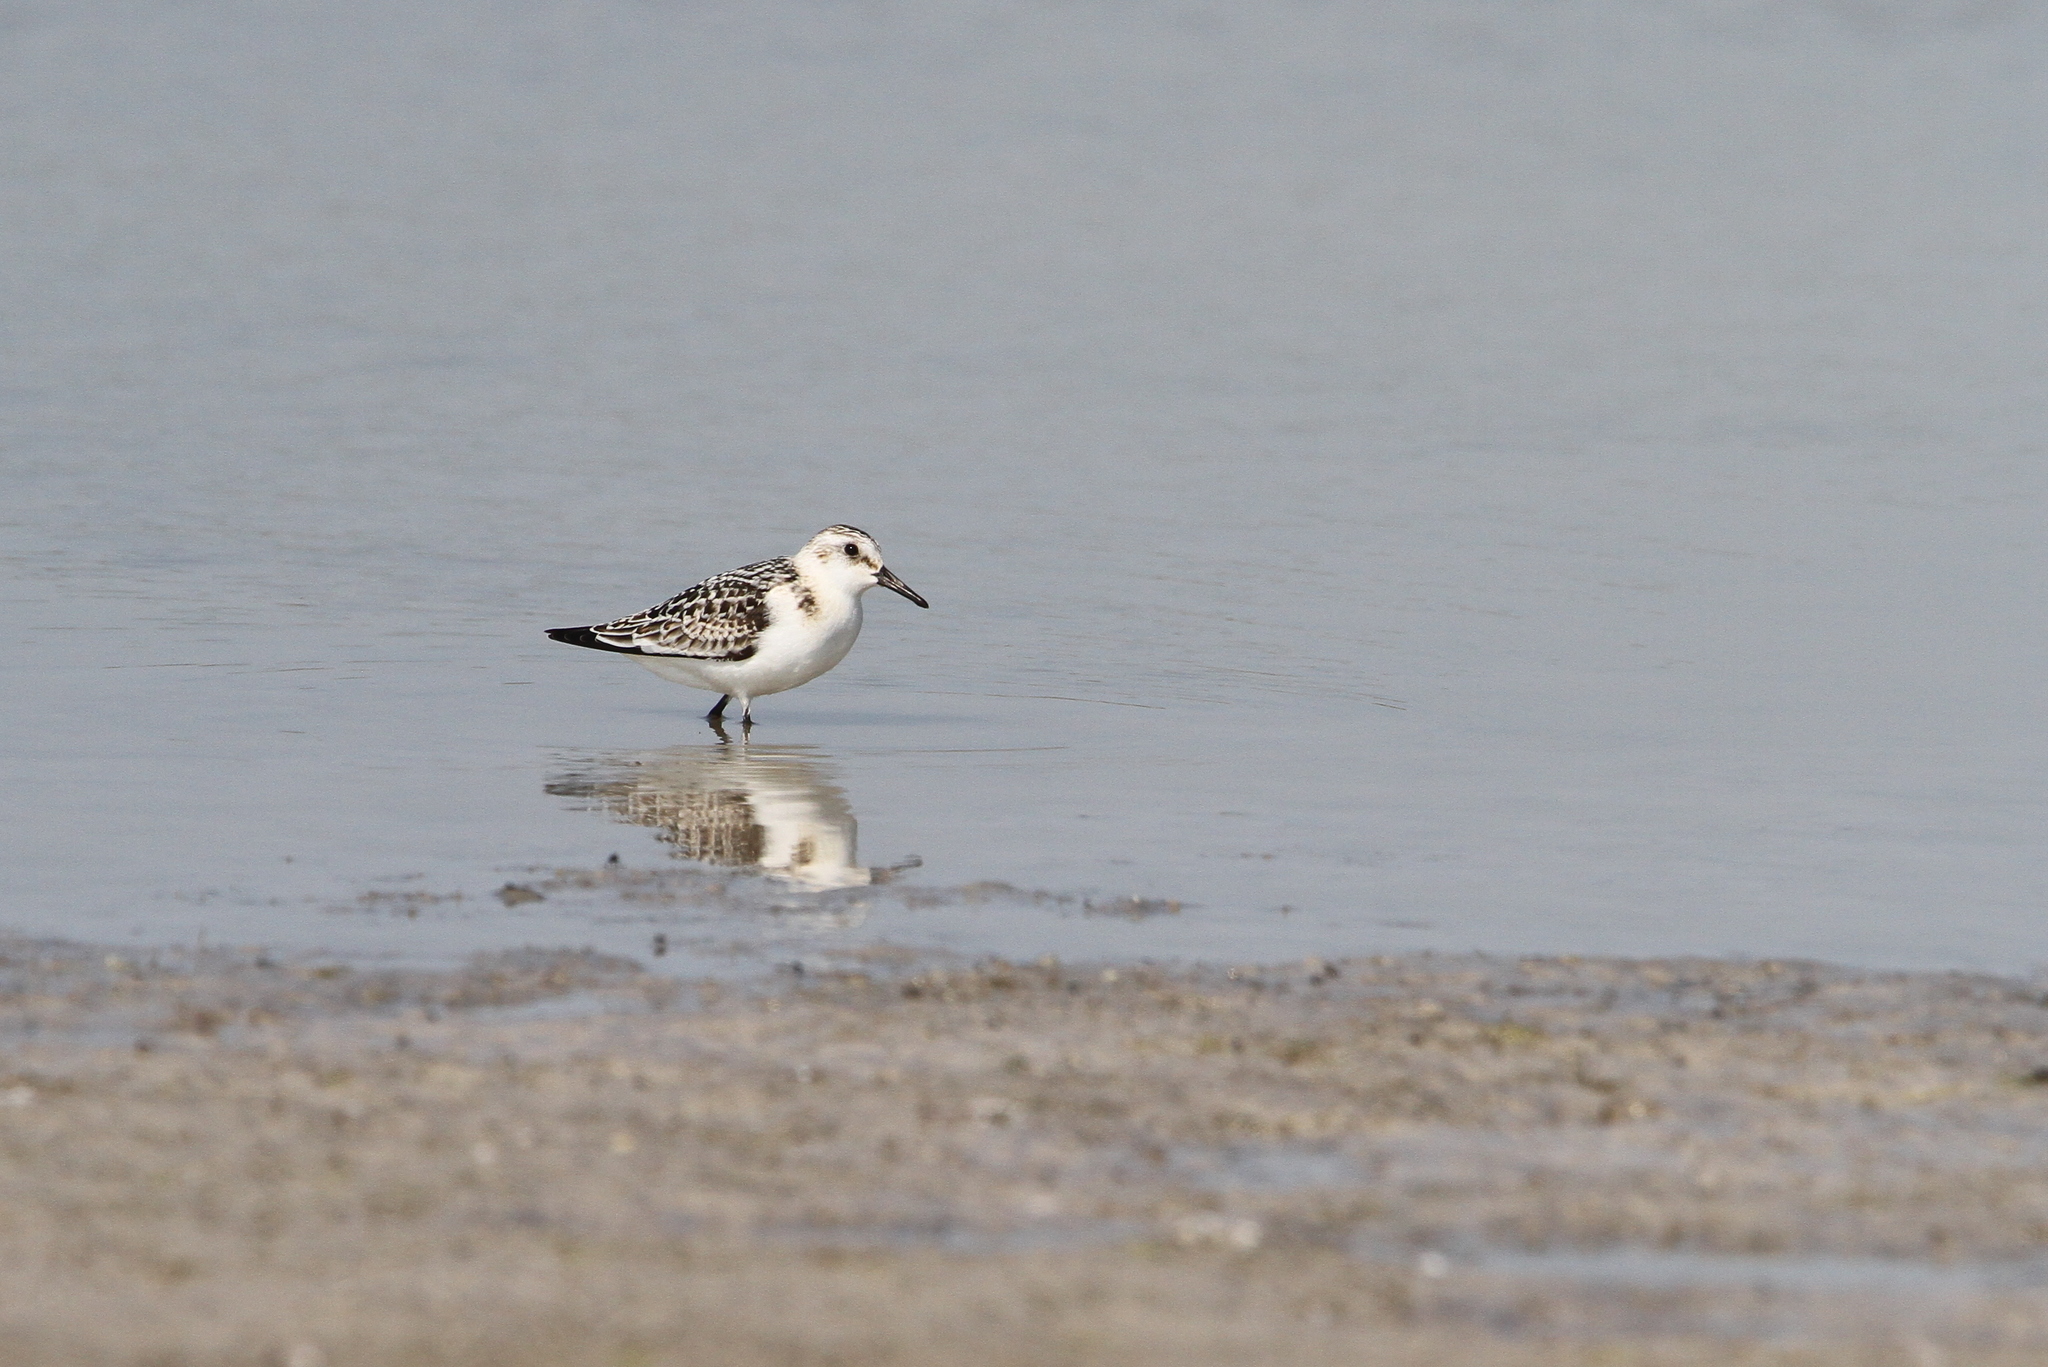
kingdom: Animalia
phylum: Chordata
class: Aves
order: Charadriiformes
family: Scolopacidae
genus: Calidris
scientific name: Calidris alba
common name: Sanderling
